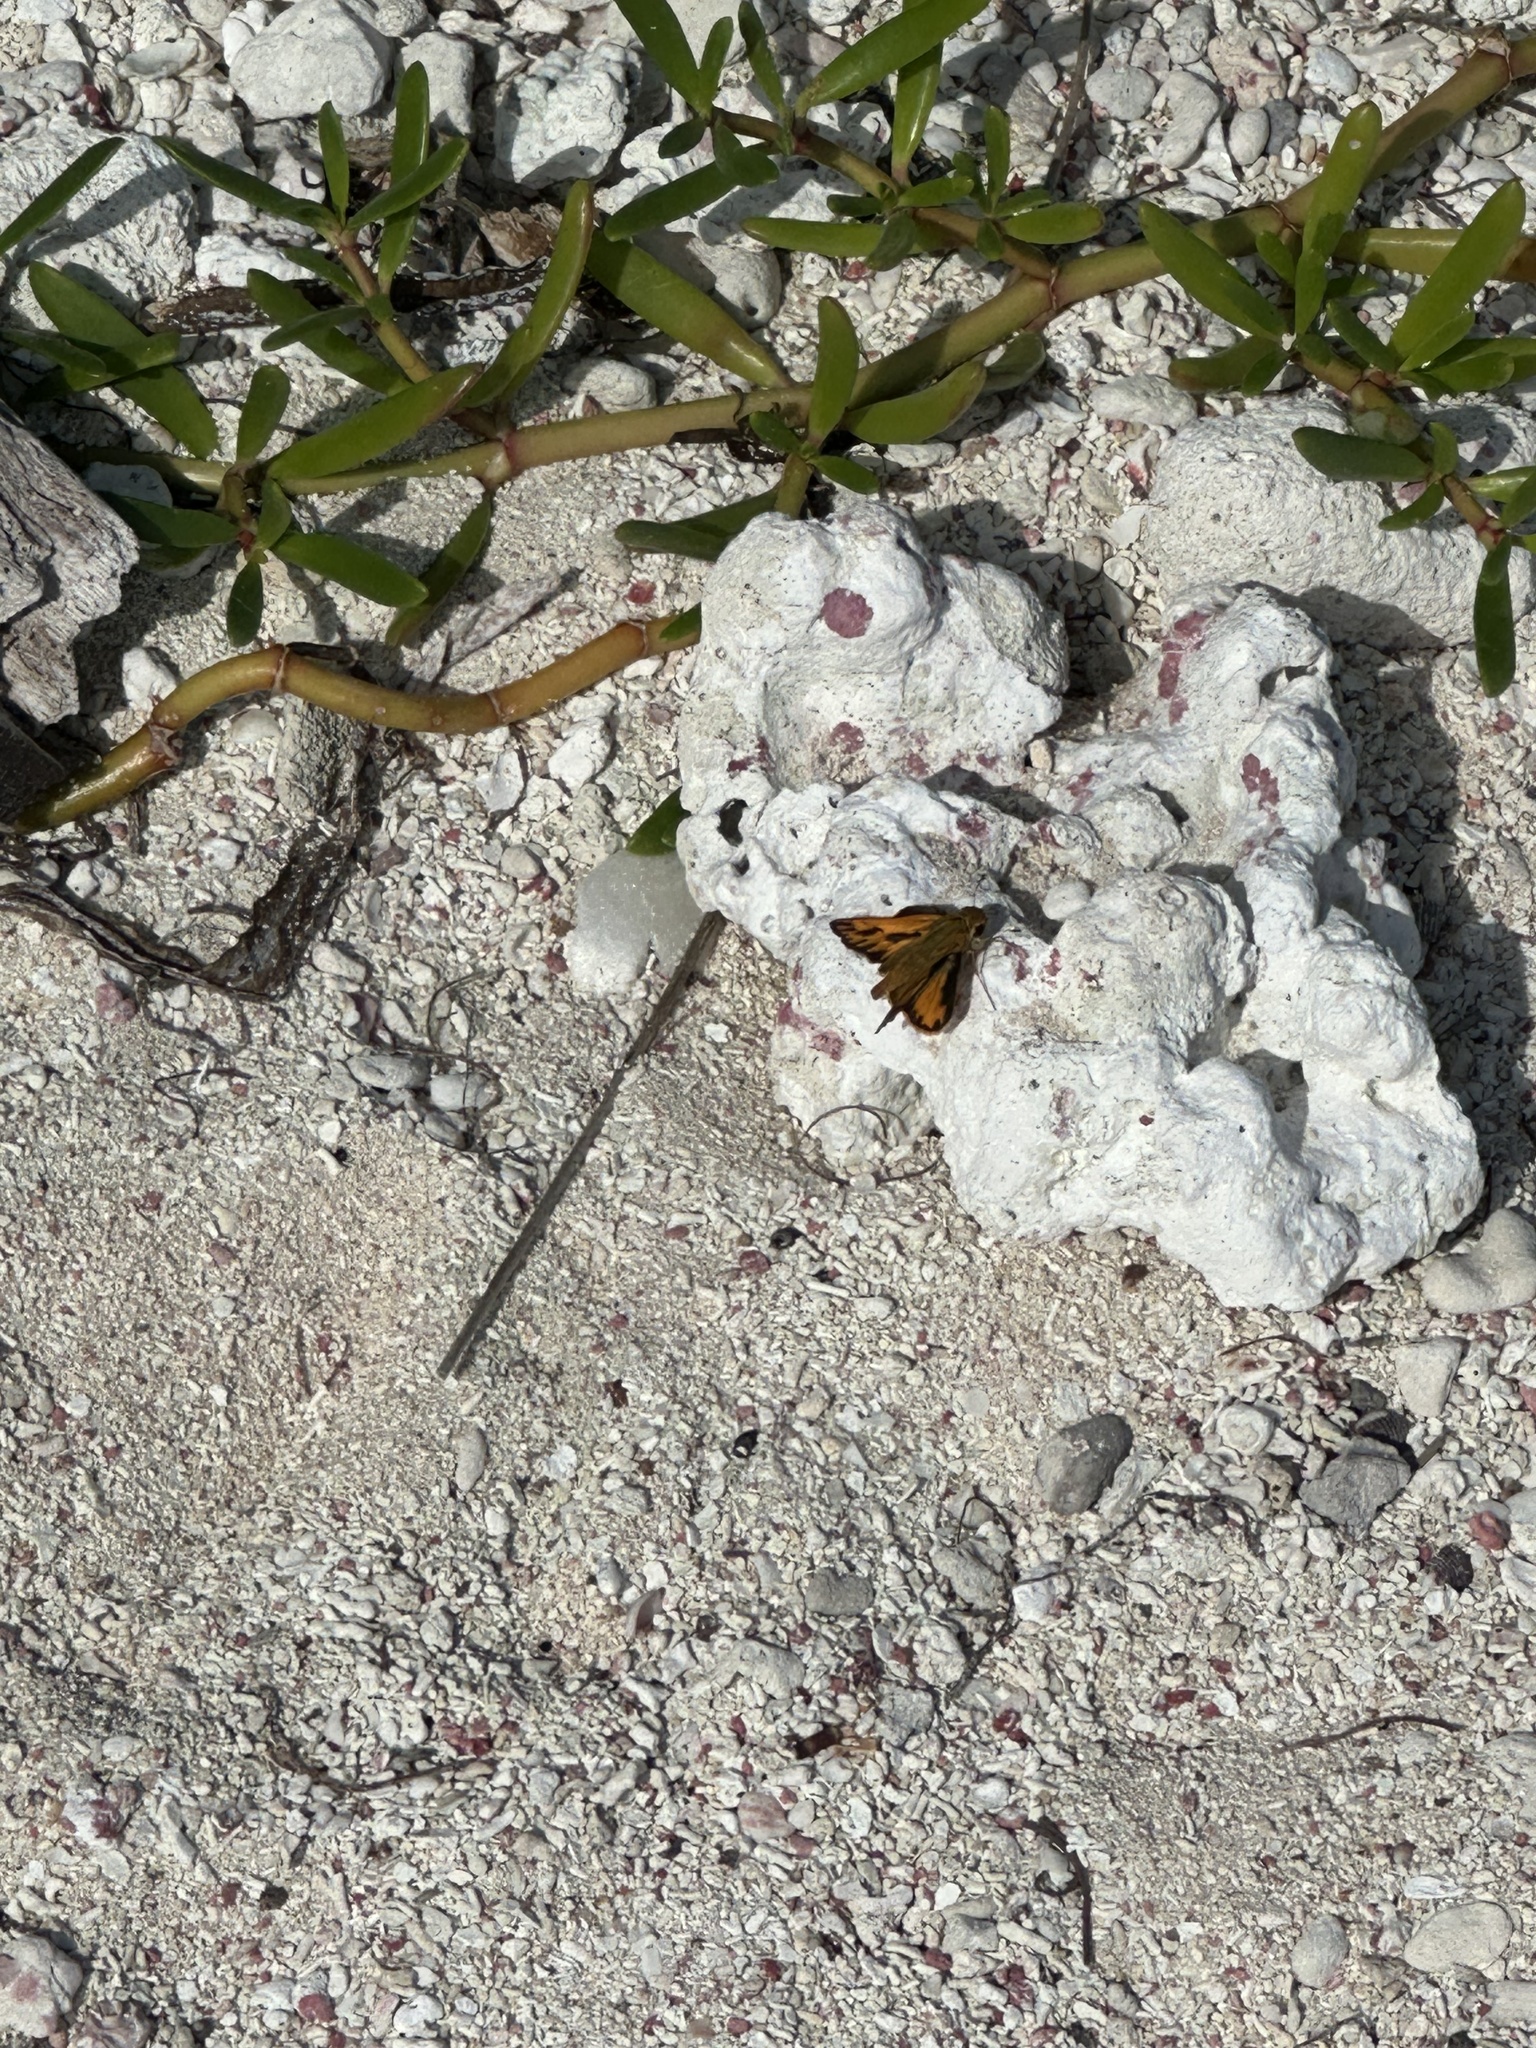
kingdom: Animalia
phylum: Arthropoda
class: Insecta
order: Lepidoptera
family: Hesperiidae
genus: Hylephila
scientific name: Hylephila phyleus
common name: Fiery skipper
